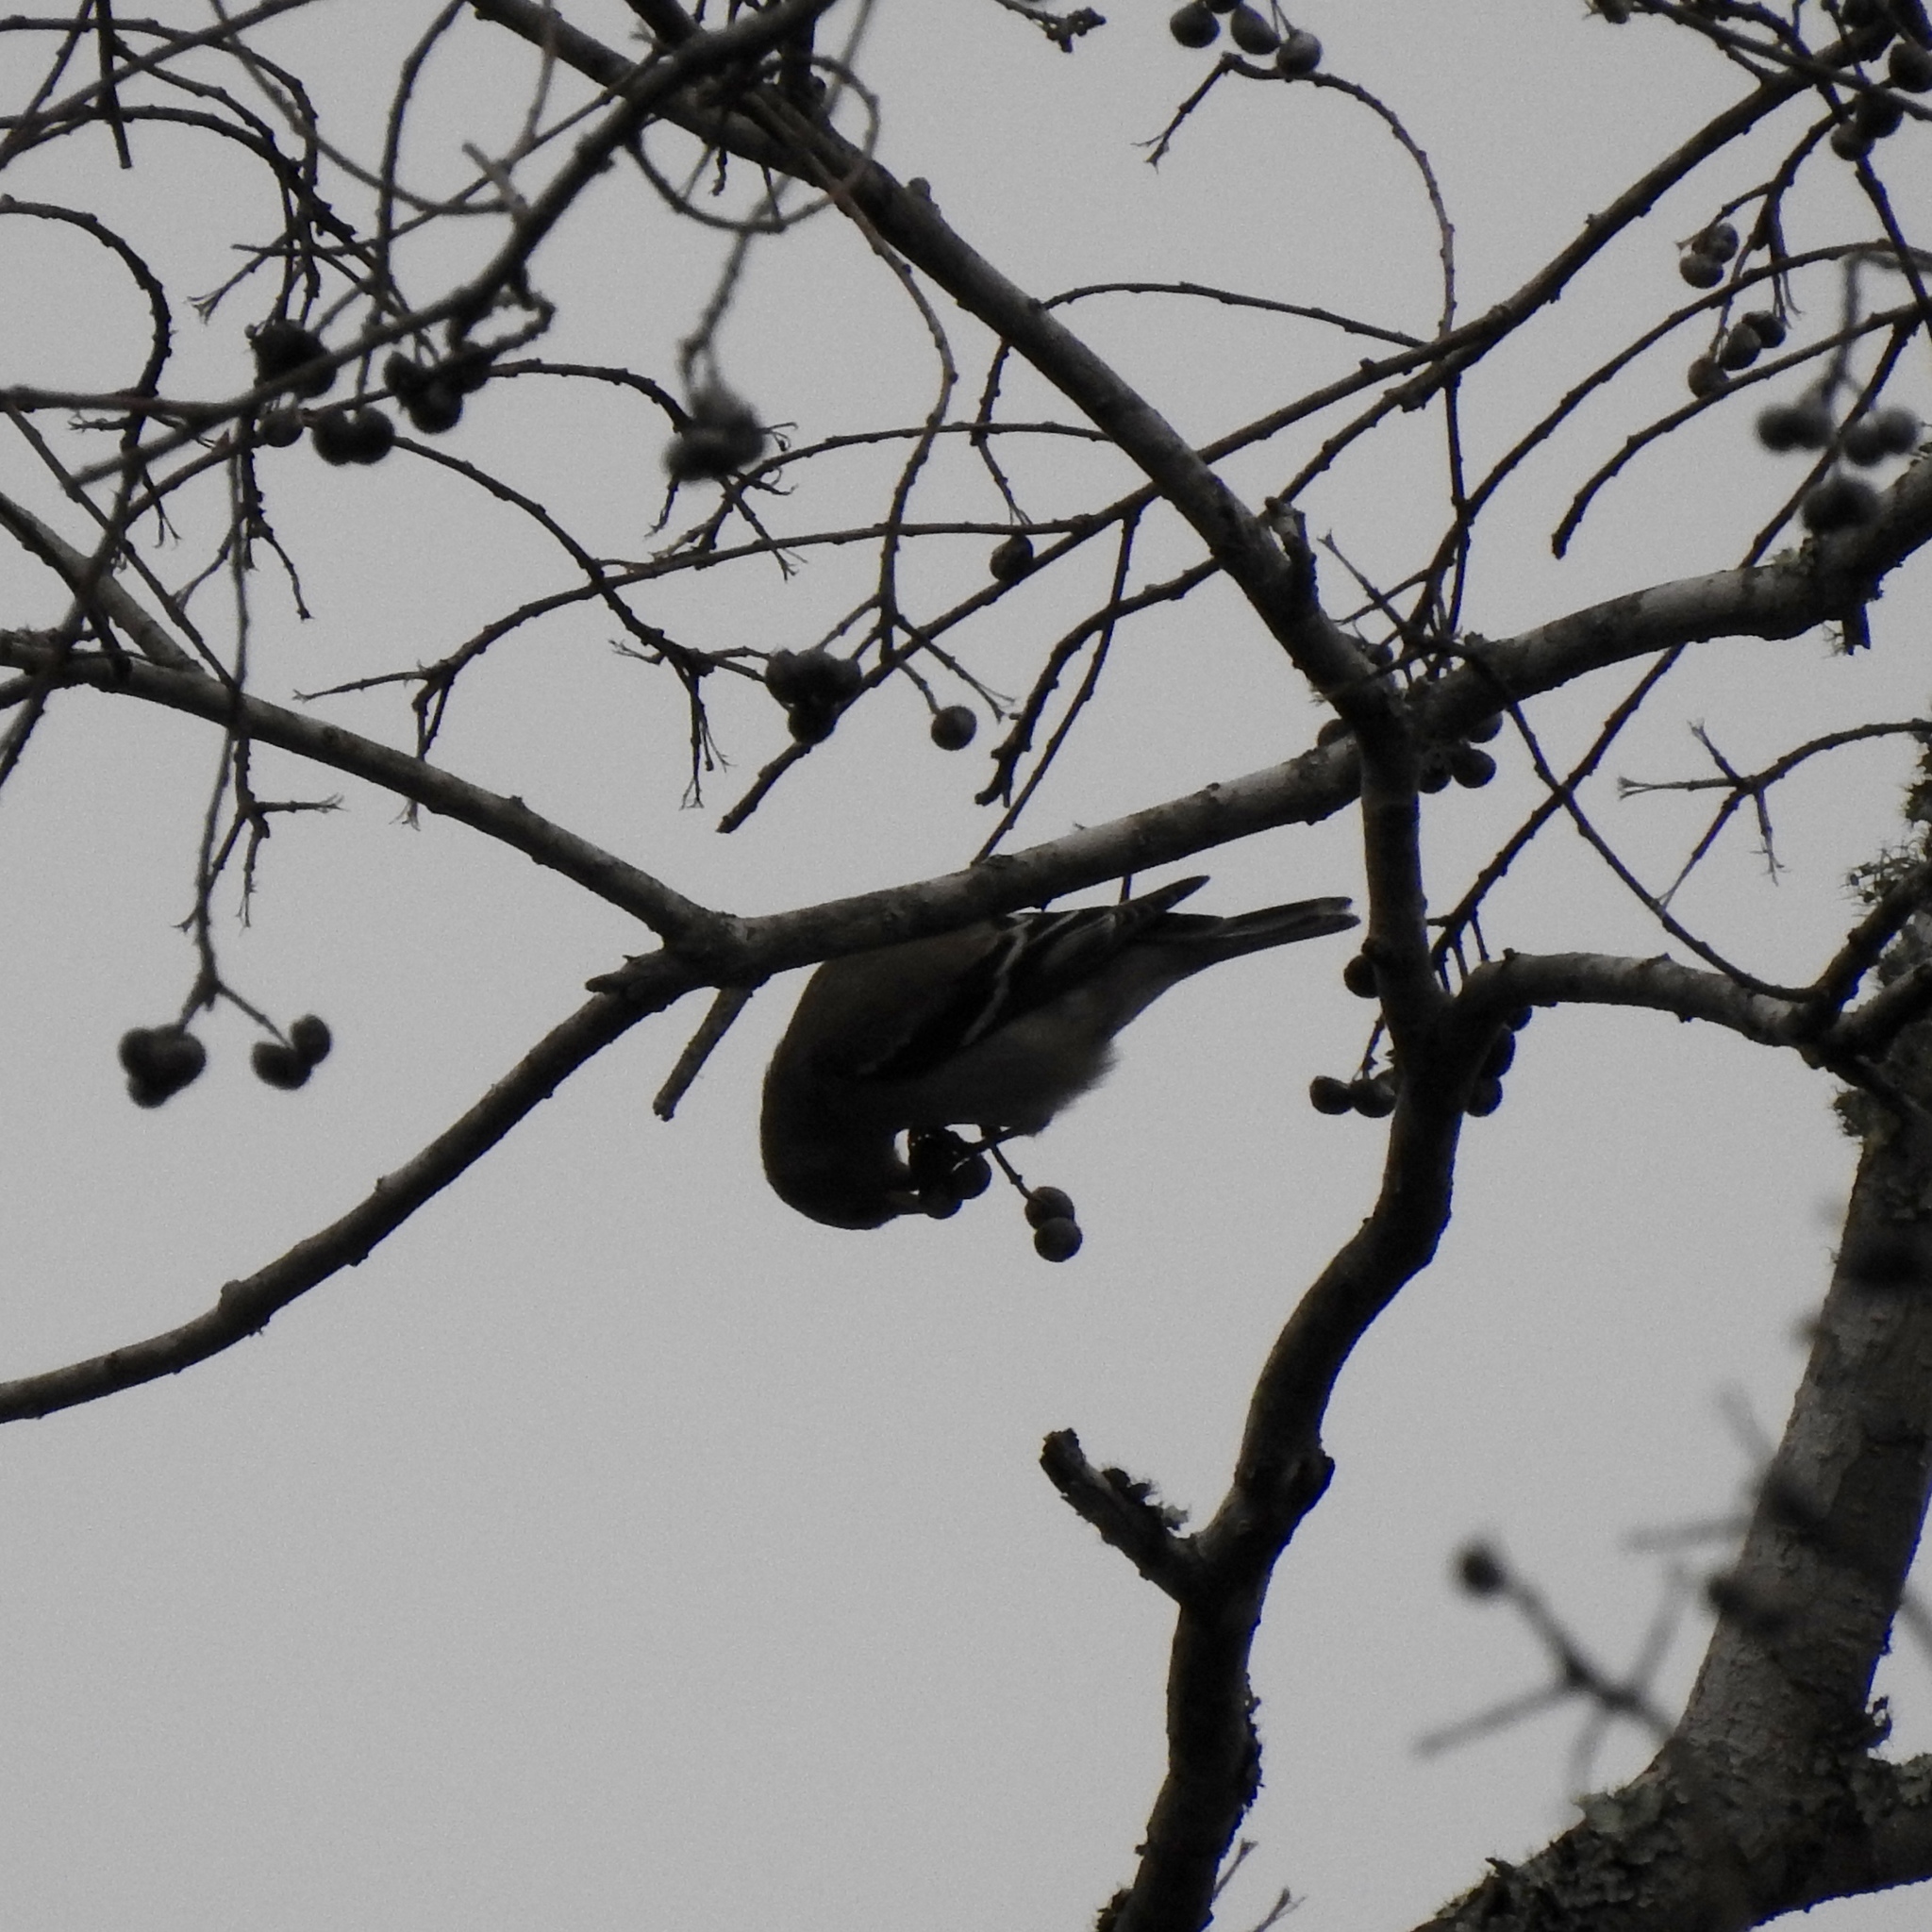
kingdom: Animalia
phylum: Chordata
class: Aves
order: Passeriformes
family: Fringillidae
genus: Spinus
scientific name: Spinus tristis
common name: American goldfinch
